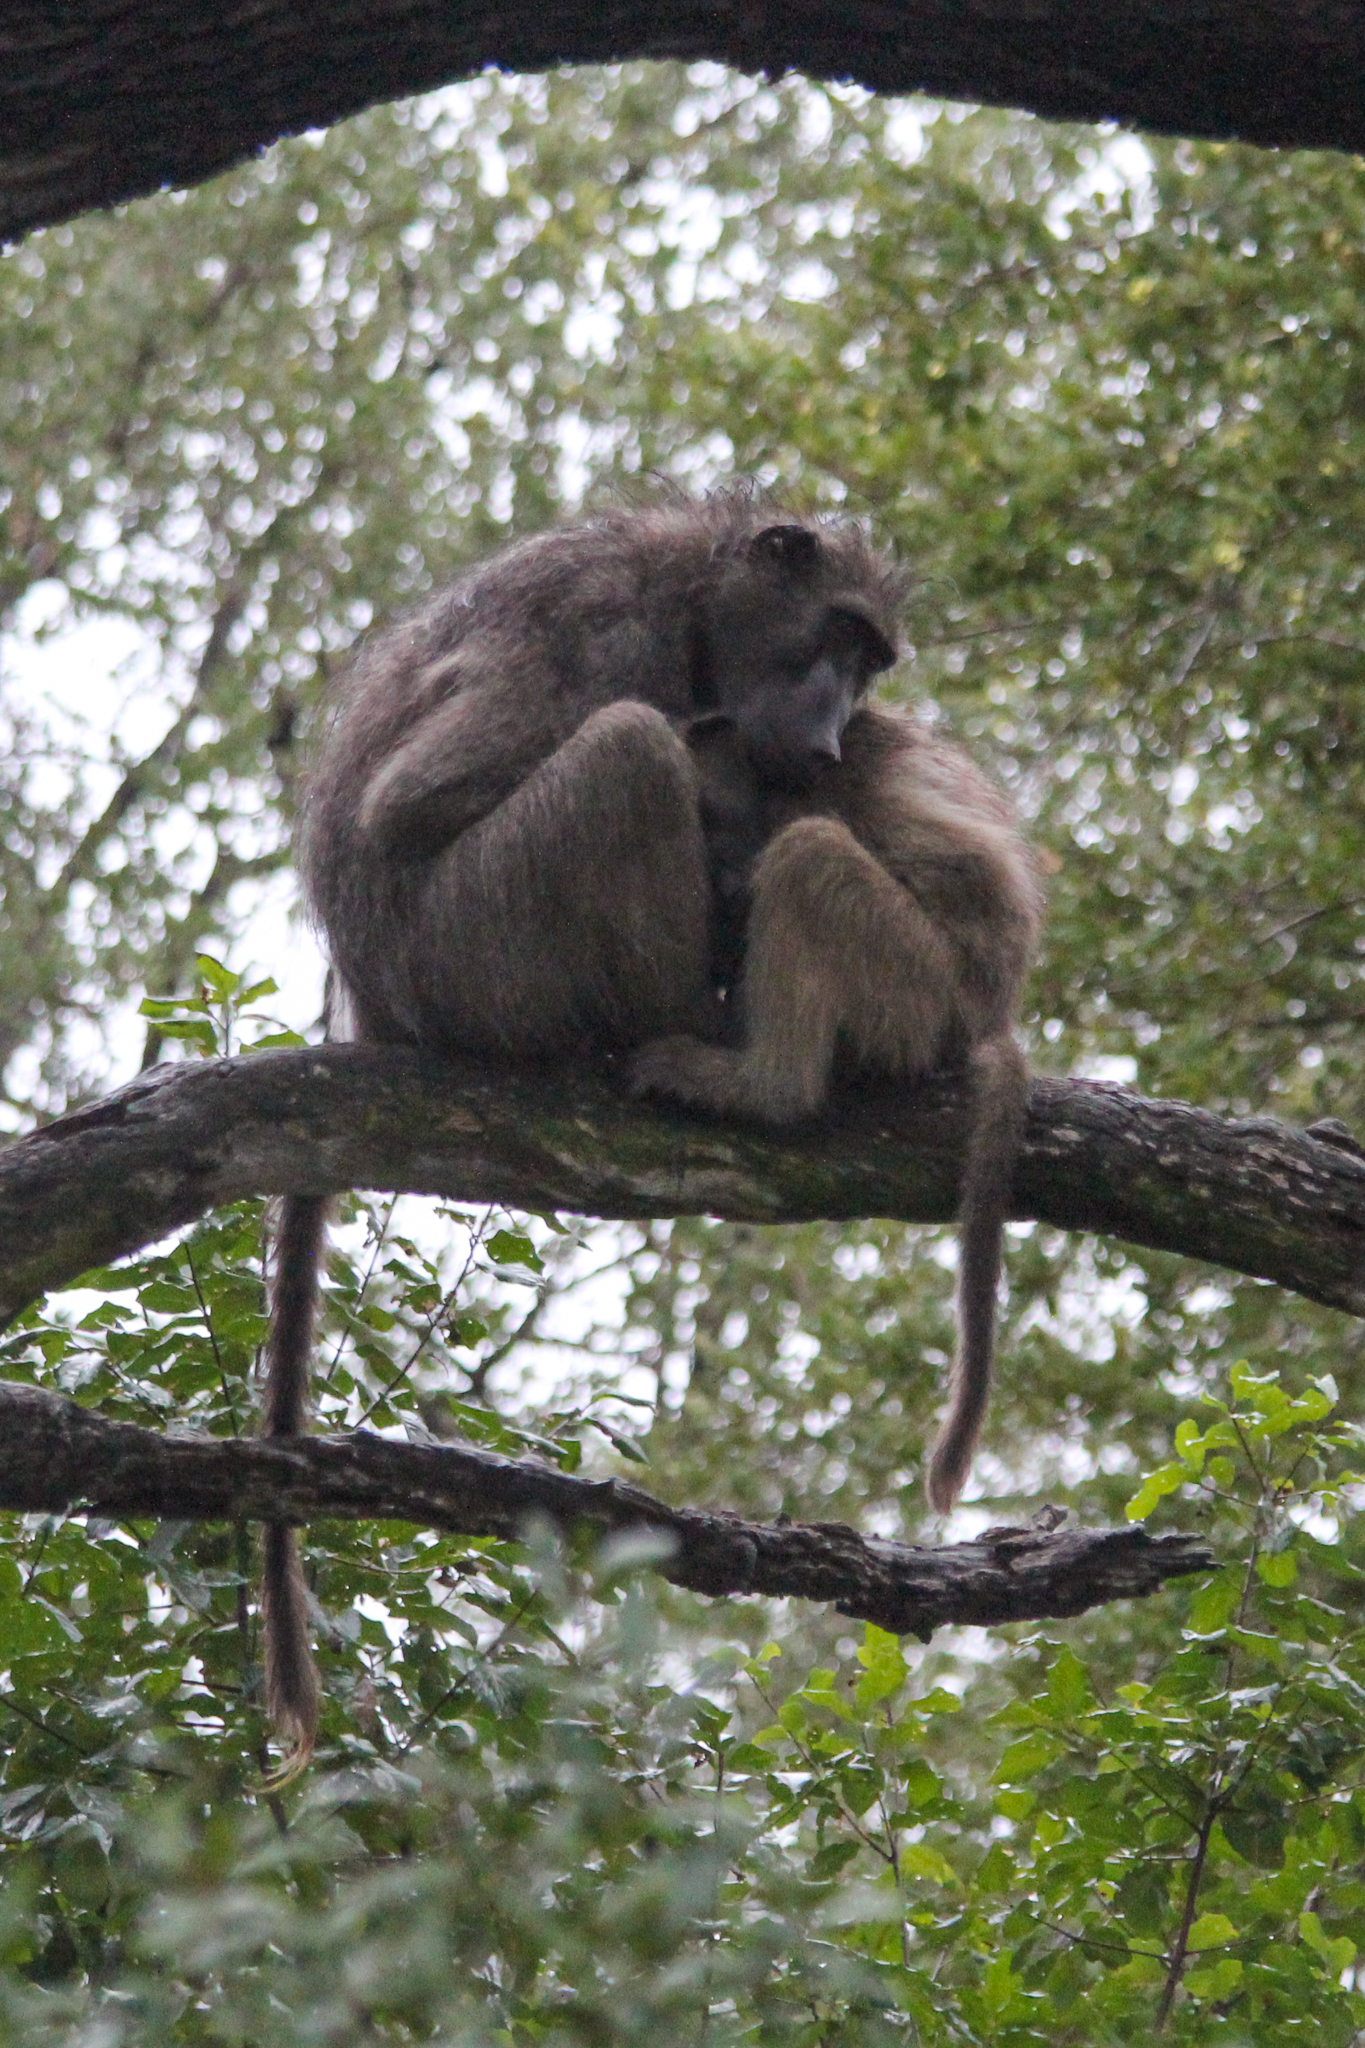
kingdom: Animalia
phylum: Chordata
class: Mammalia
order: Primates
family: Cercopithecidae
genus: Papio
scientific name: Papio ursinus
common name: Chacma baboon
